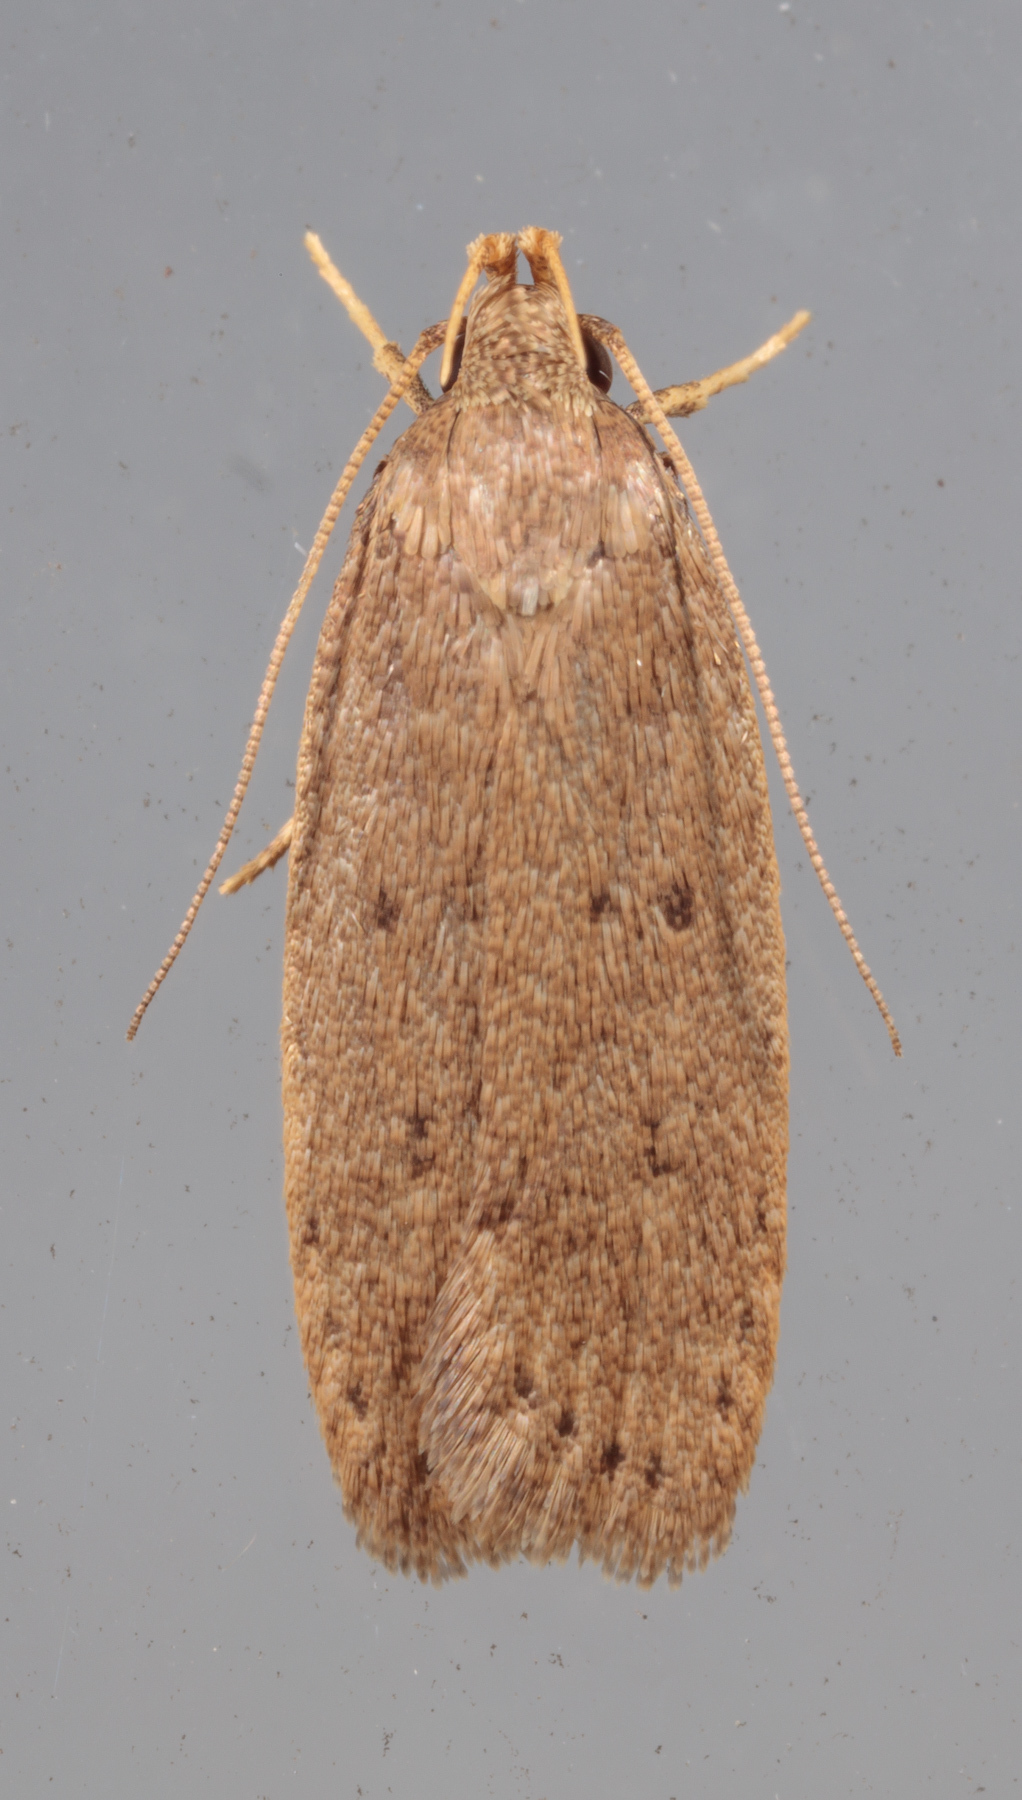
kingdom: Animalia
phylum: Arthropoda
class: Insecta
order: Lepidoptera
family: Autostichidae
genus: Autosticha
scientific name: Autosticha kyotensis
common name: Kyoto moth
